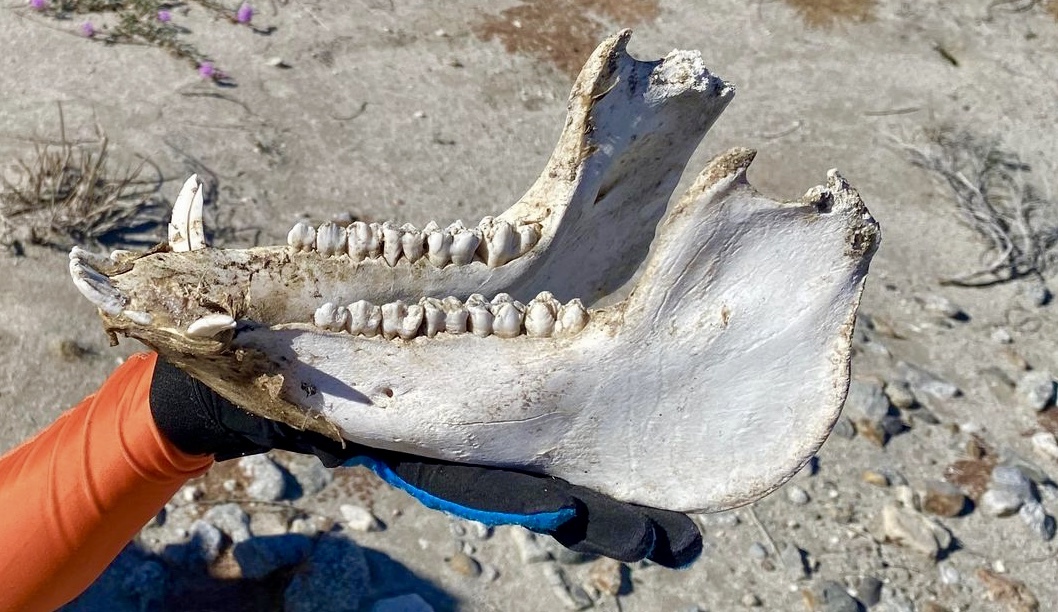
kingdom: Animalia
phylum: Chordata
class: Mammalia
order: Artiodactyla
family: Suidae
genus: Sus
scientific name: Sus scrofa
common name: Wild boar
